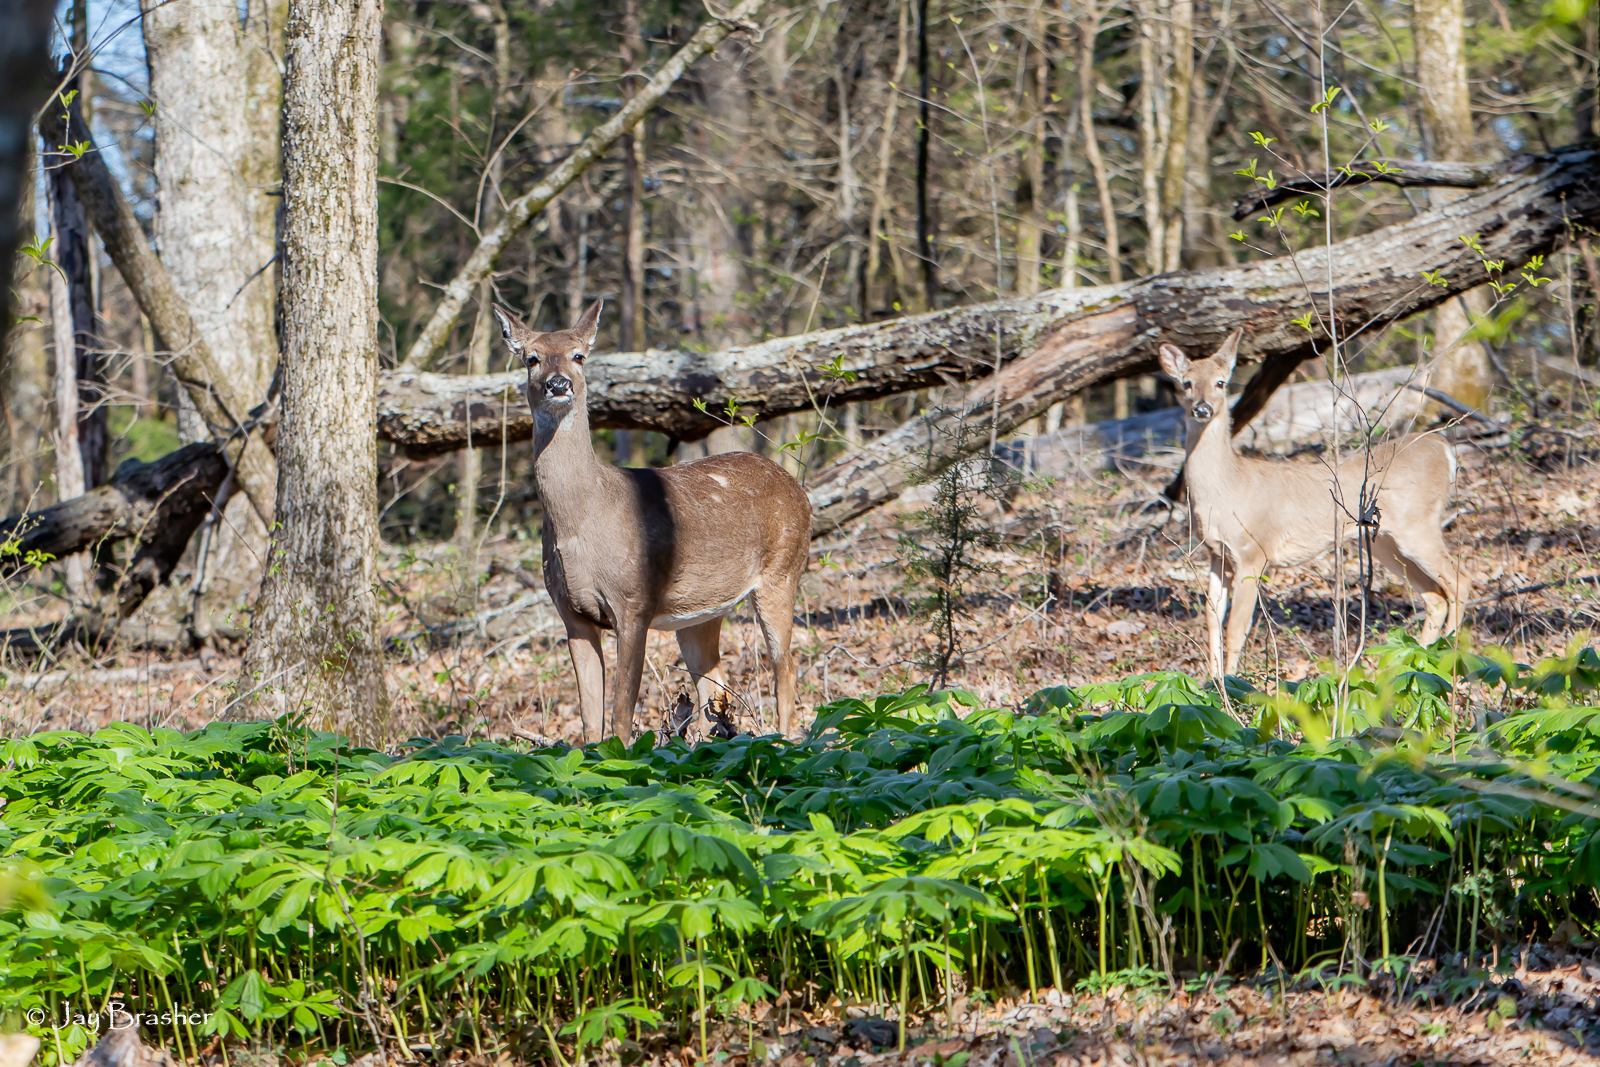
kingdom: Animalia
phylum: Chordata
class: Mammalia
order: Artiodactyla
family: Cervidae
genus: Odocoileus
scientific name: Odocoileus virginianus
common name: White-tailed deer
